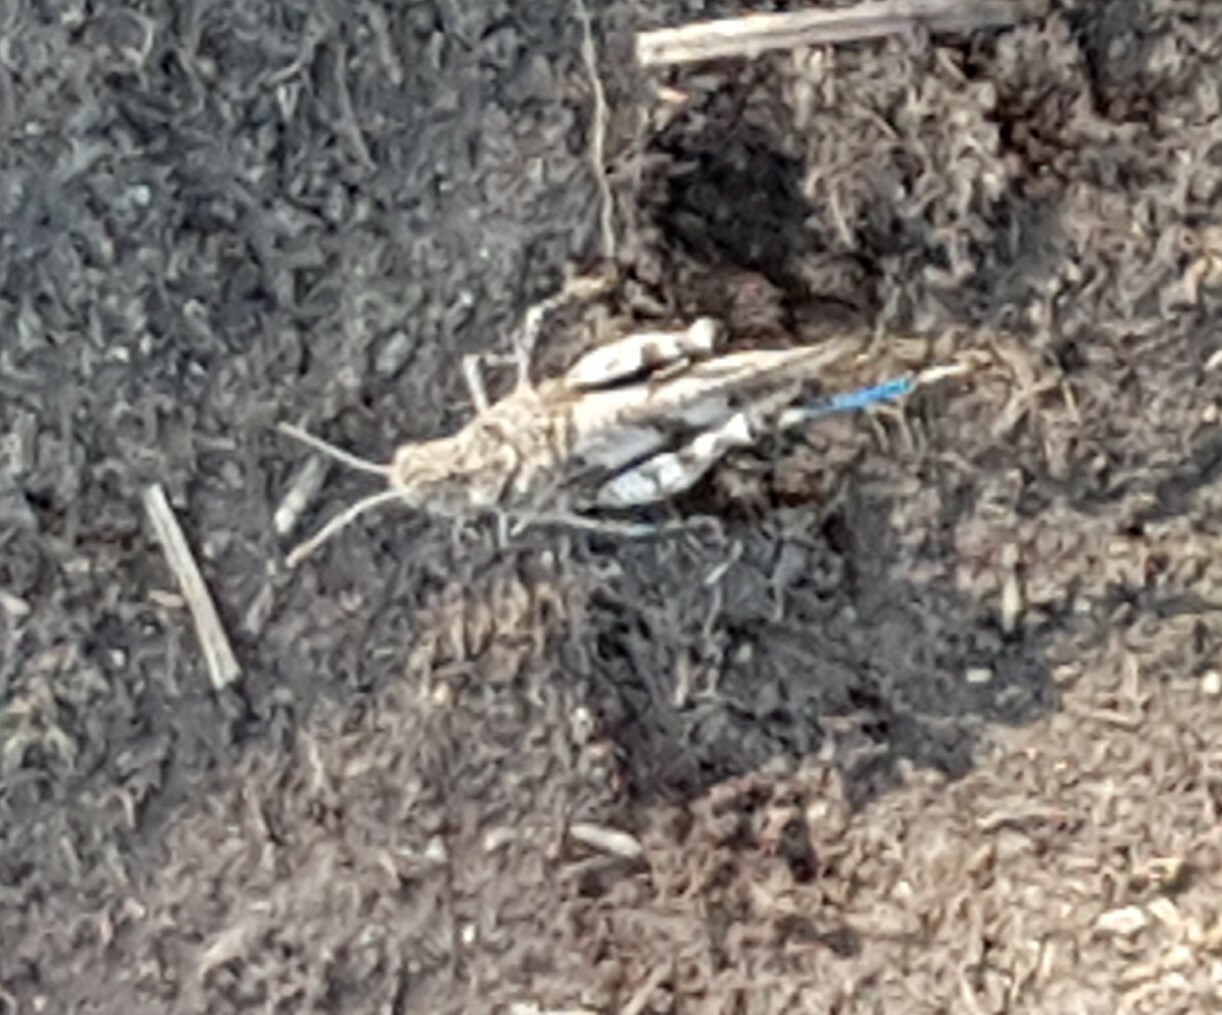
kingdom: Animalia
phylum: Arthropoda
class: Insecta
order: Orthoptera
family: Acrididae
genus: Oedipoda
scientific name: Oedipoda caerulescens
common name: Blue-winged grasshopper
